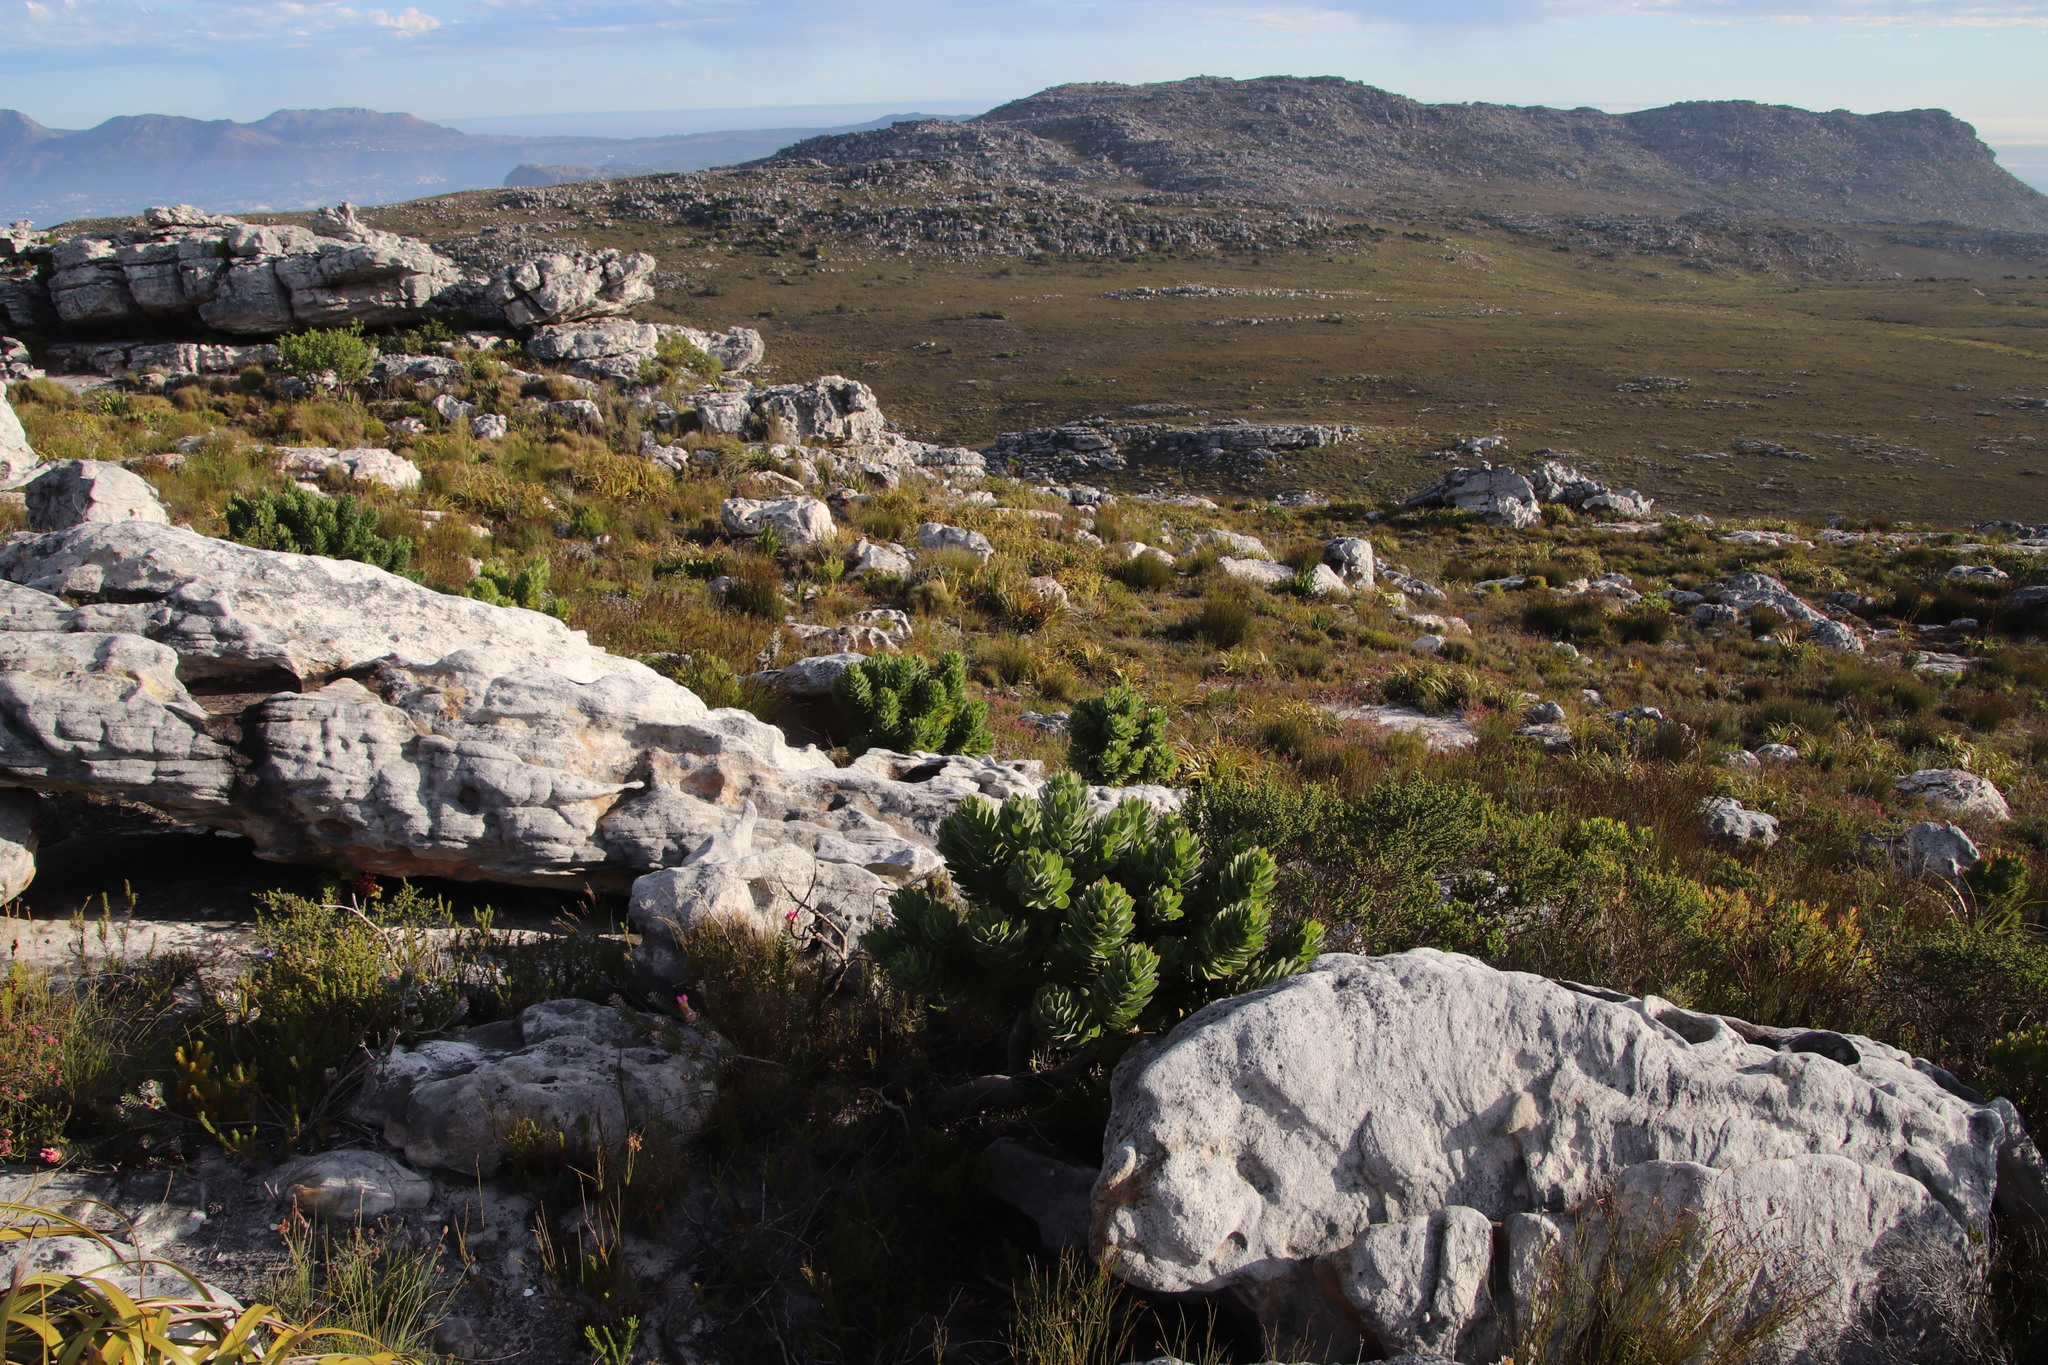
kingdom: Plantae
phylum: Tracheophyta
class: Magnoliopsida
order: Proteales
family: Proteaceae
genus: Mimetes
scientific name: Mimetes fimbriifolius
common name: Fringed bottlebrush
